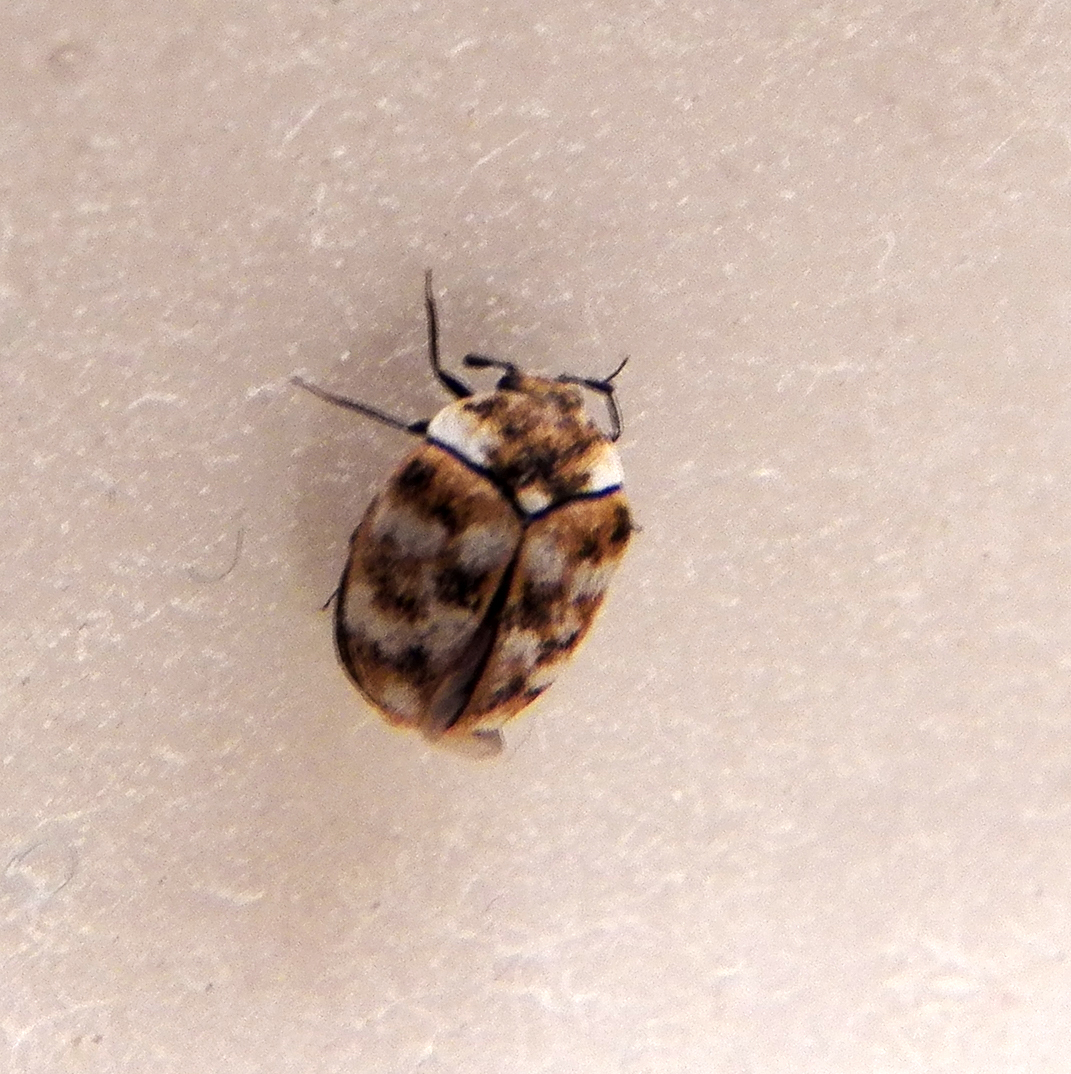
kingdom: Animalia
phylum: Arthropoda
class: Insecta
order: Coleoptera
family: Dermestidae
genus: Anthrenus
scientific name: Anthrenus verbasci
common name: Varied carpet beetle
